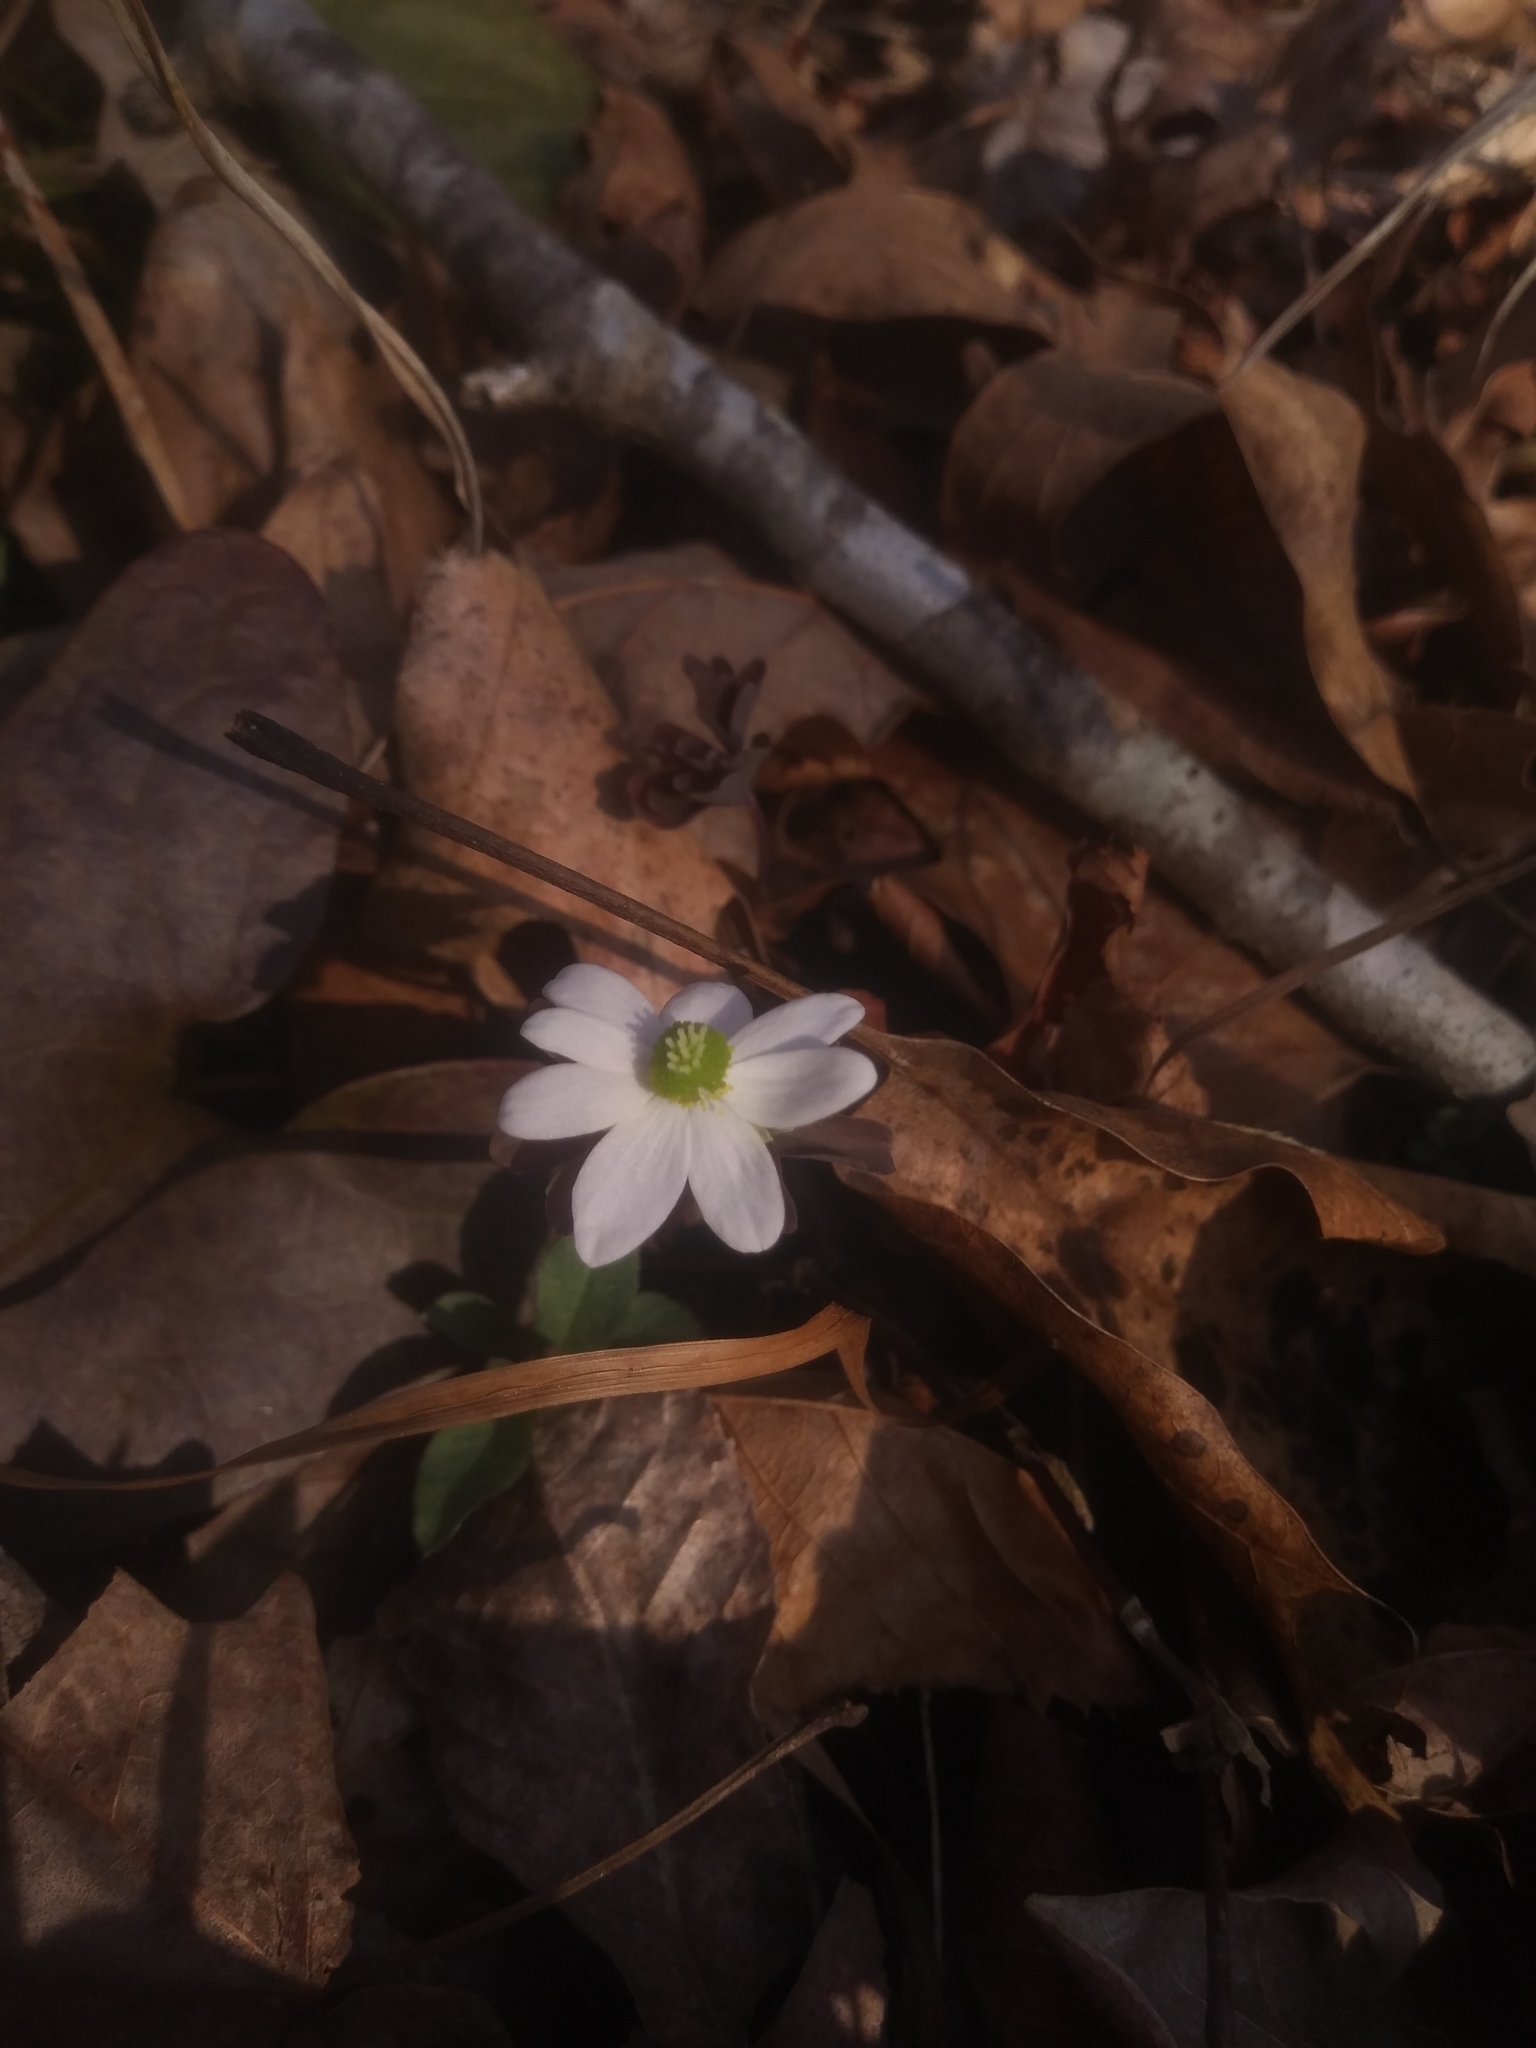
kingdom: Plantae
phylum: Tracheophyta
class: Magnoliopsida
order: Ranunculales
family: Ranunculaceae
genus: Thalictrum
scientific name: Thalictrum thalictroides
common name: Rue-anemone
